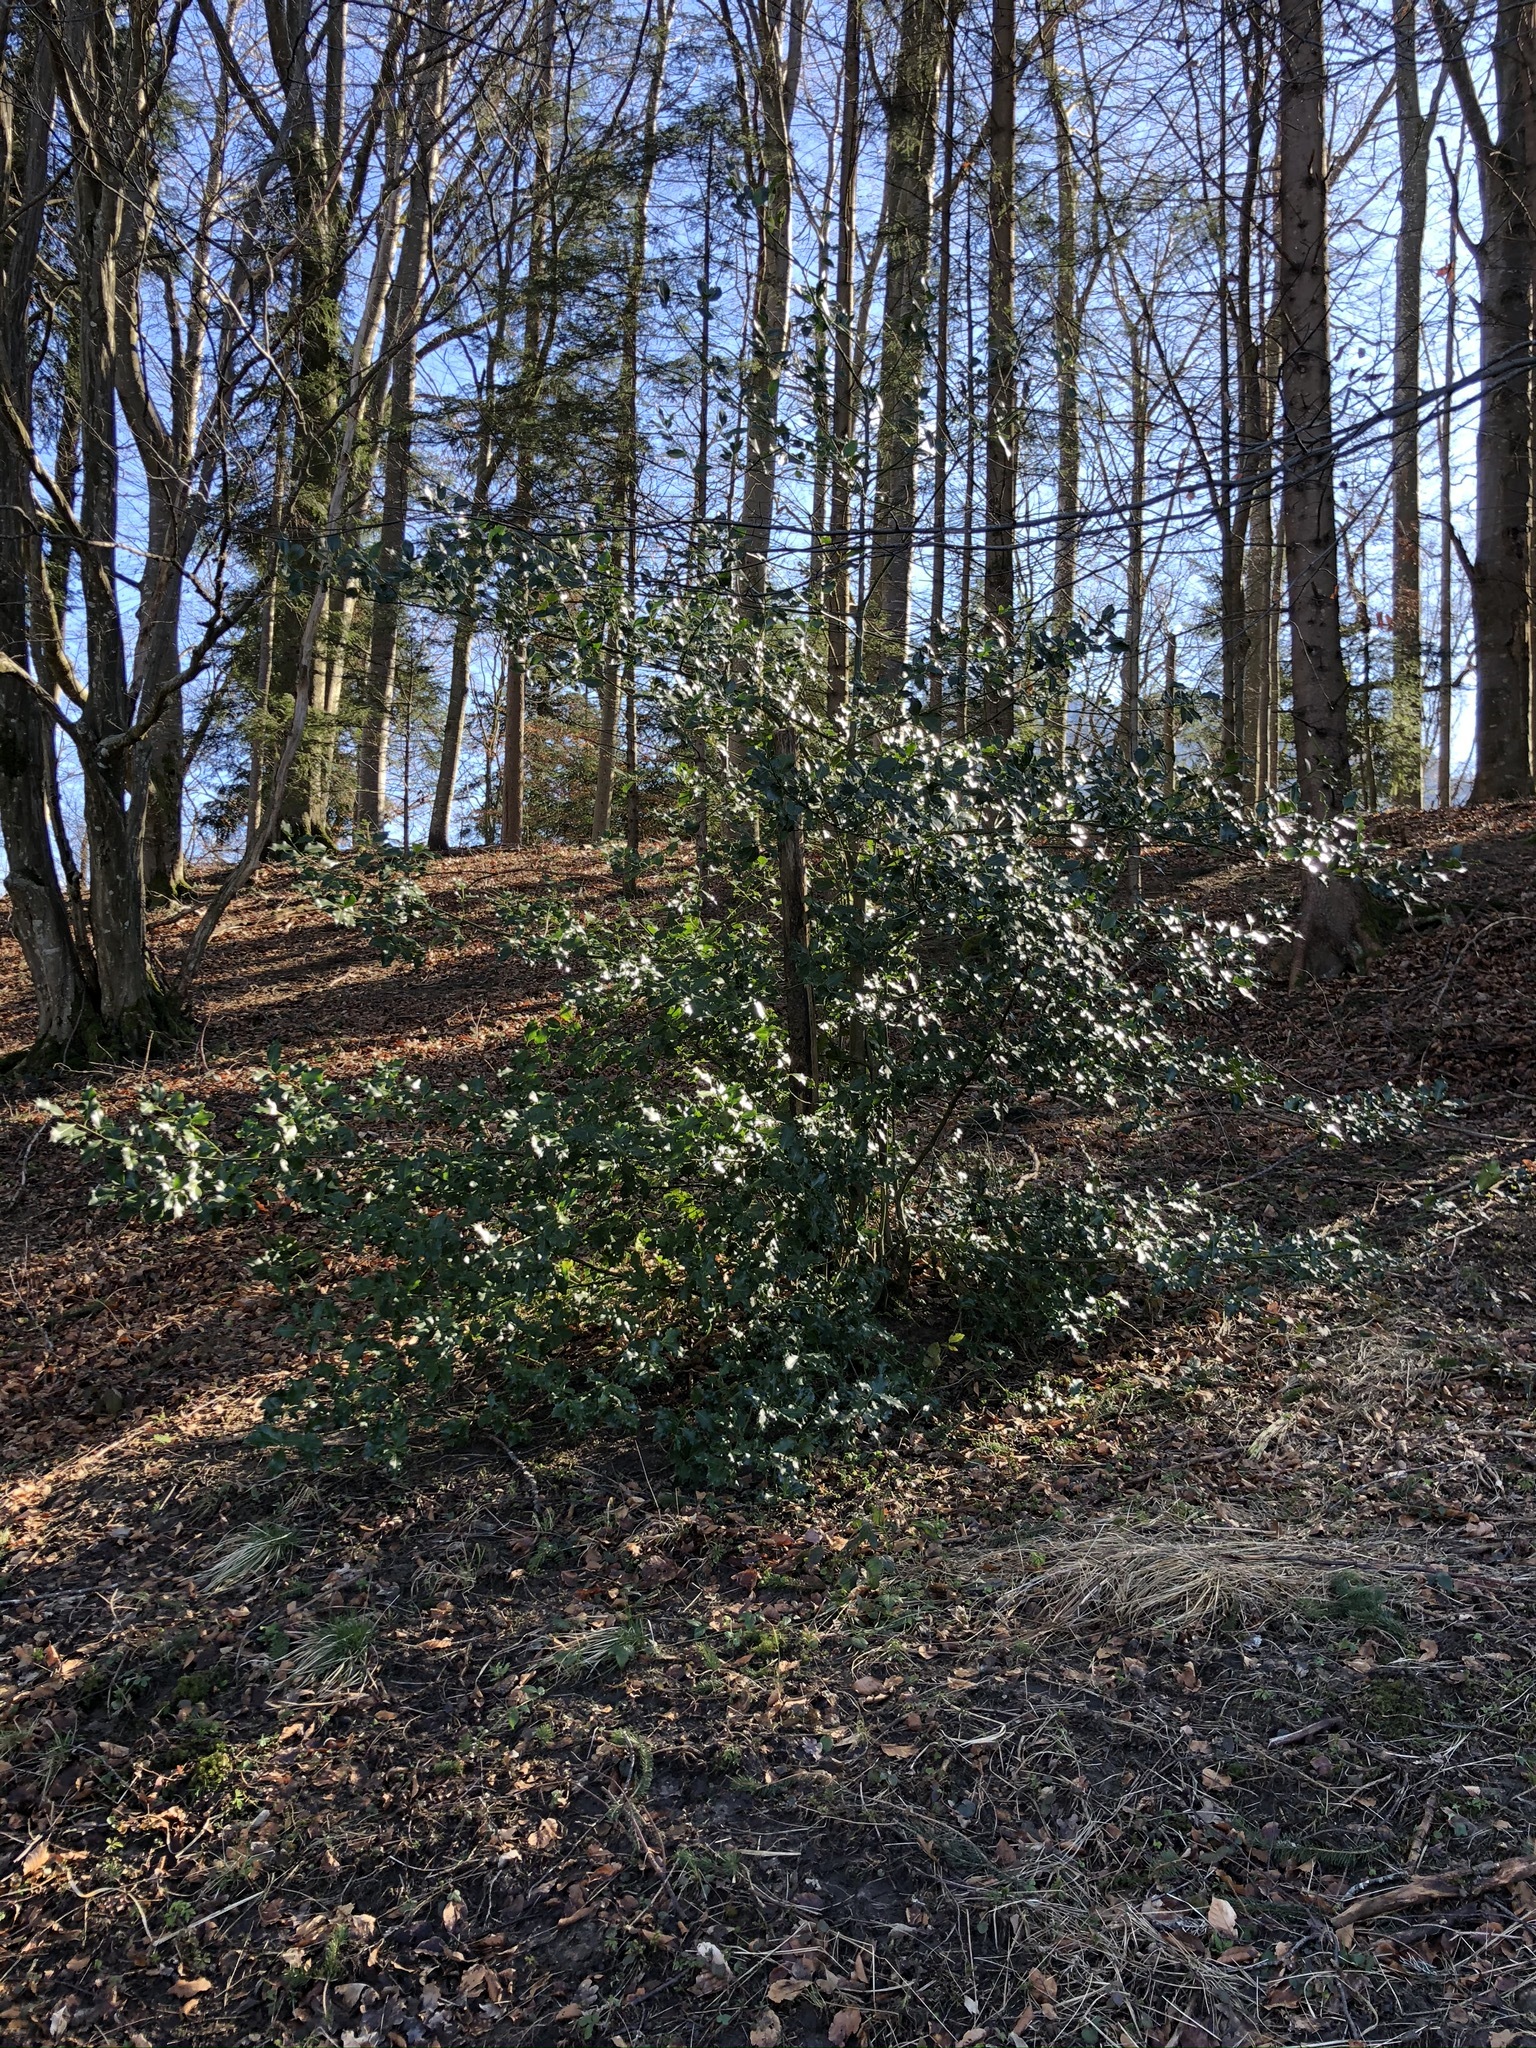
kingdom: Plantae
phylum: Tracheophyta
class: Magnoliopsida
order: Aquifoliales
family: Aquifoliaceae
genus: Ilex
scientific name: Ilex aquifolium
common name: English holly
